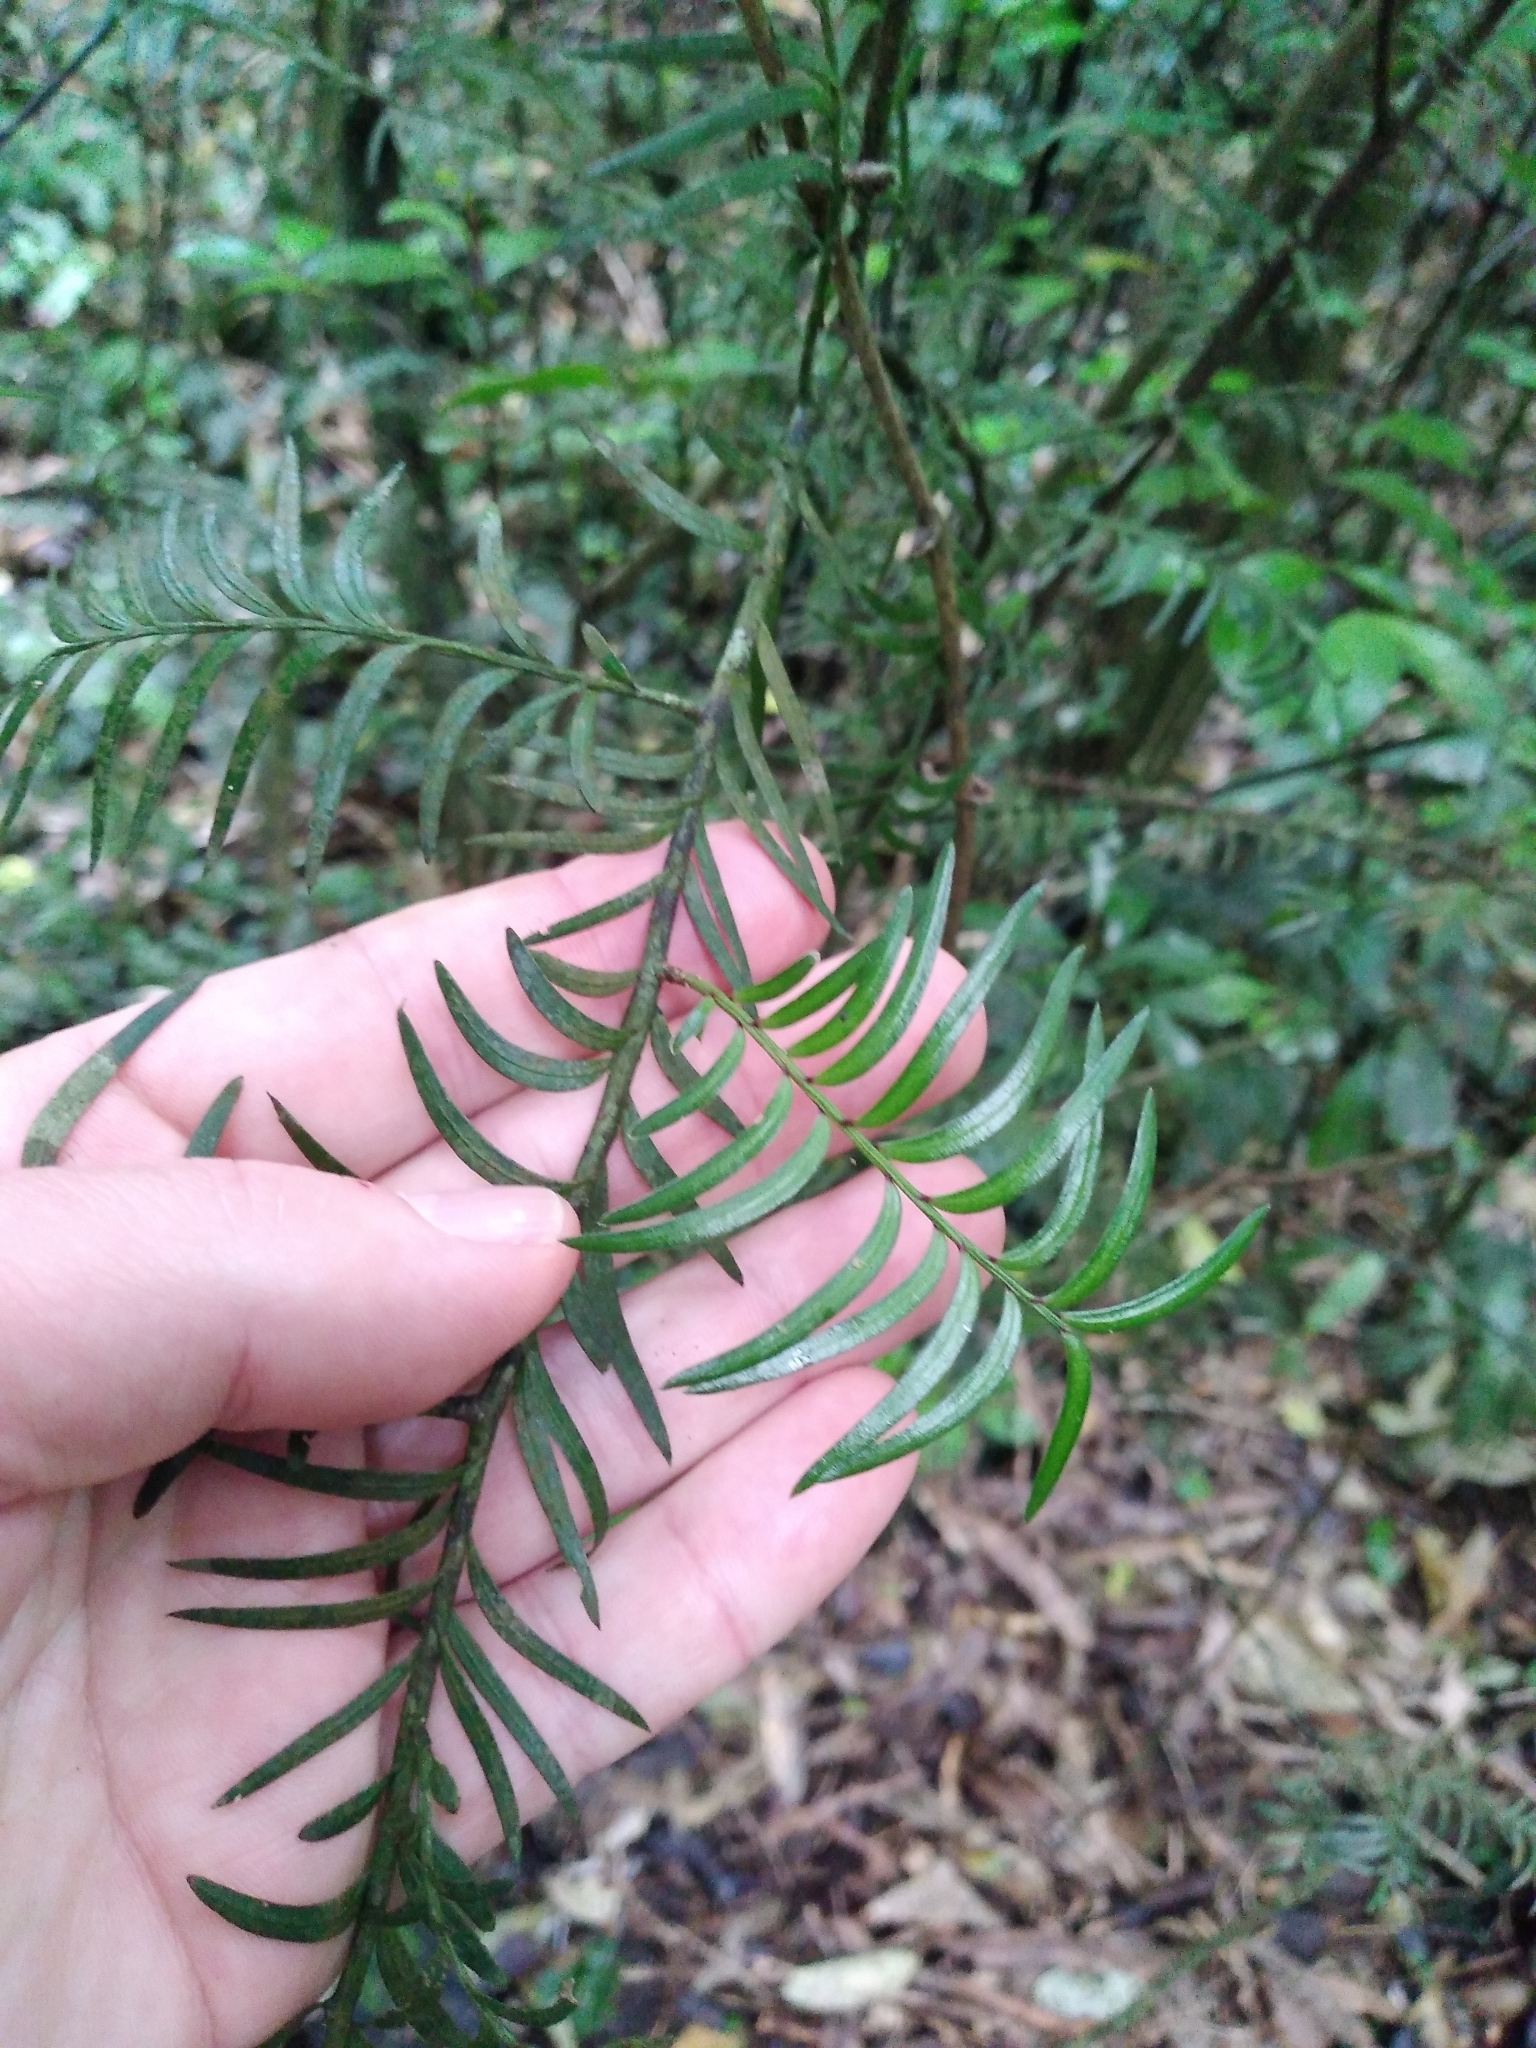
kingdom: Plantae
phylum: Tracheophyta
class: Pinopsida
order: Pinales
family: Podocarpaceae
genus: Prumnopitys
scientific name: Prumnopitys ferruginea
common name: Brown pine
